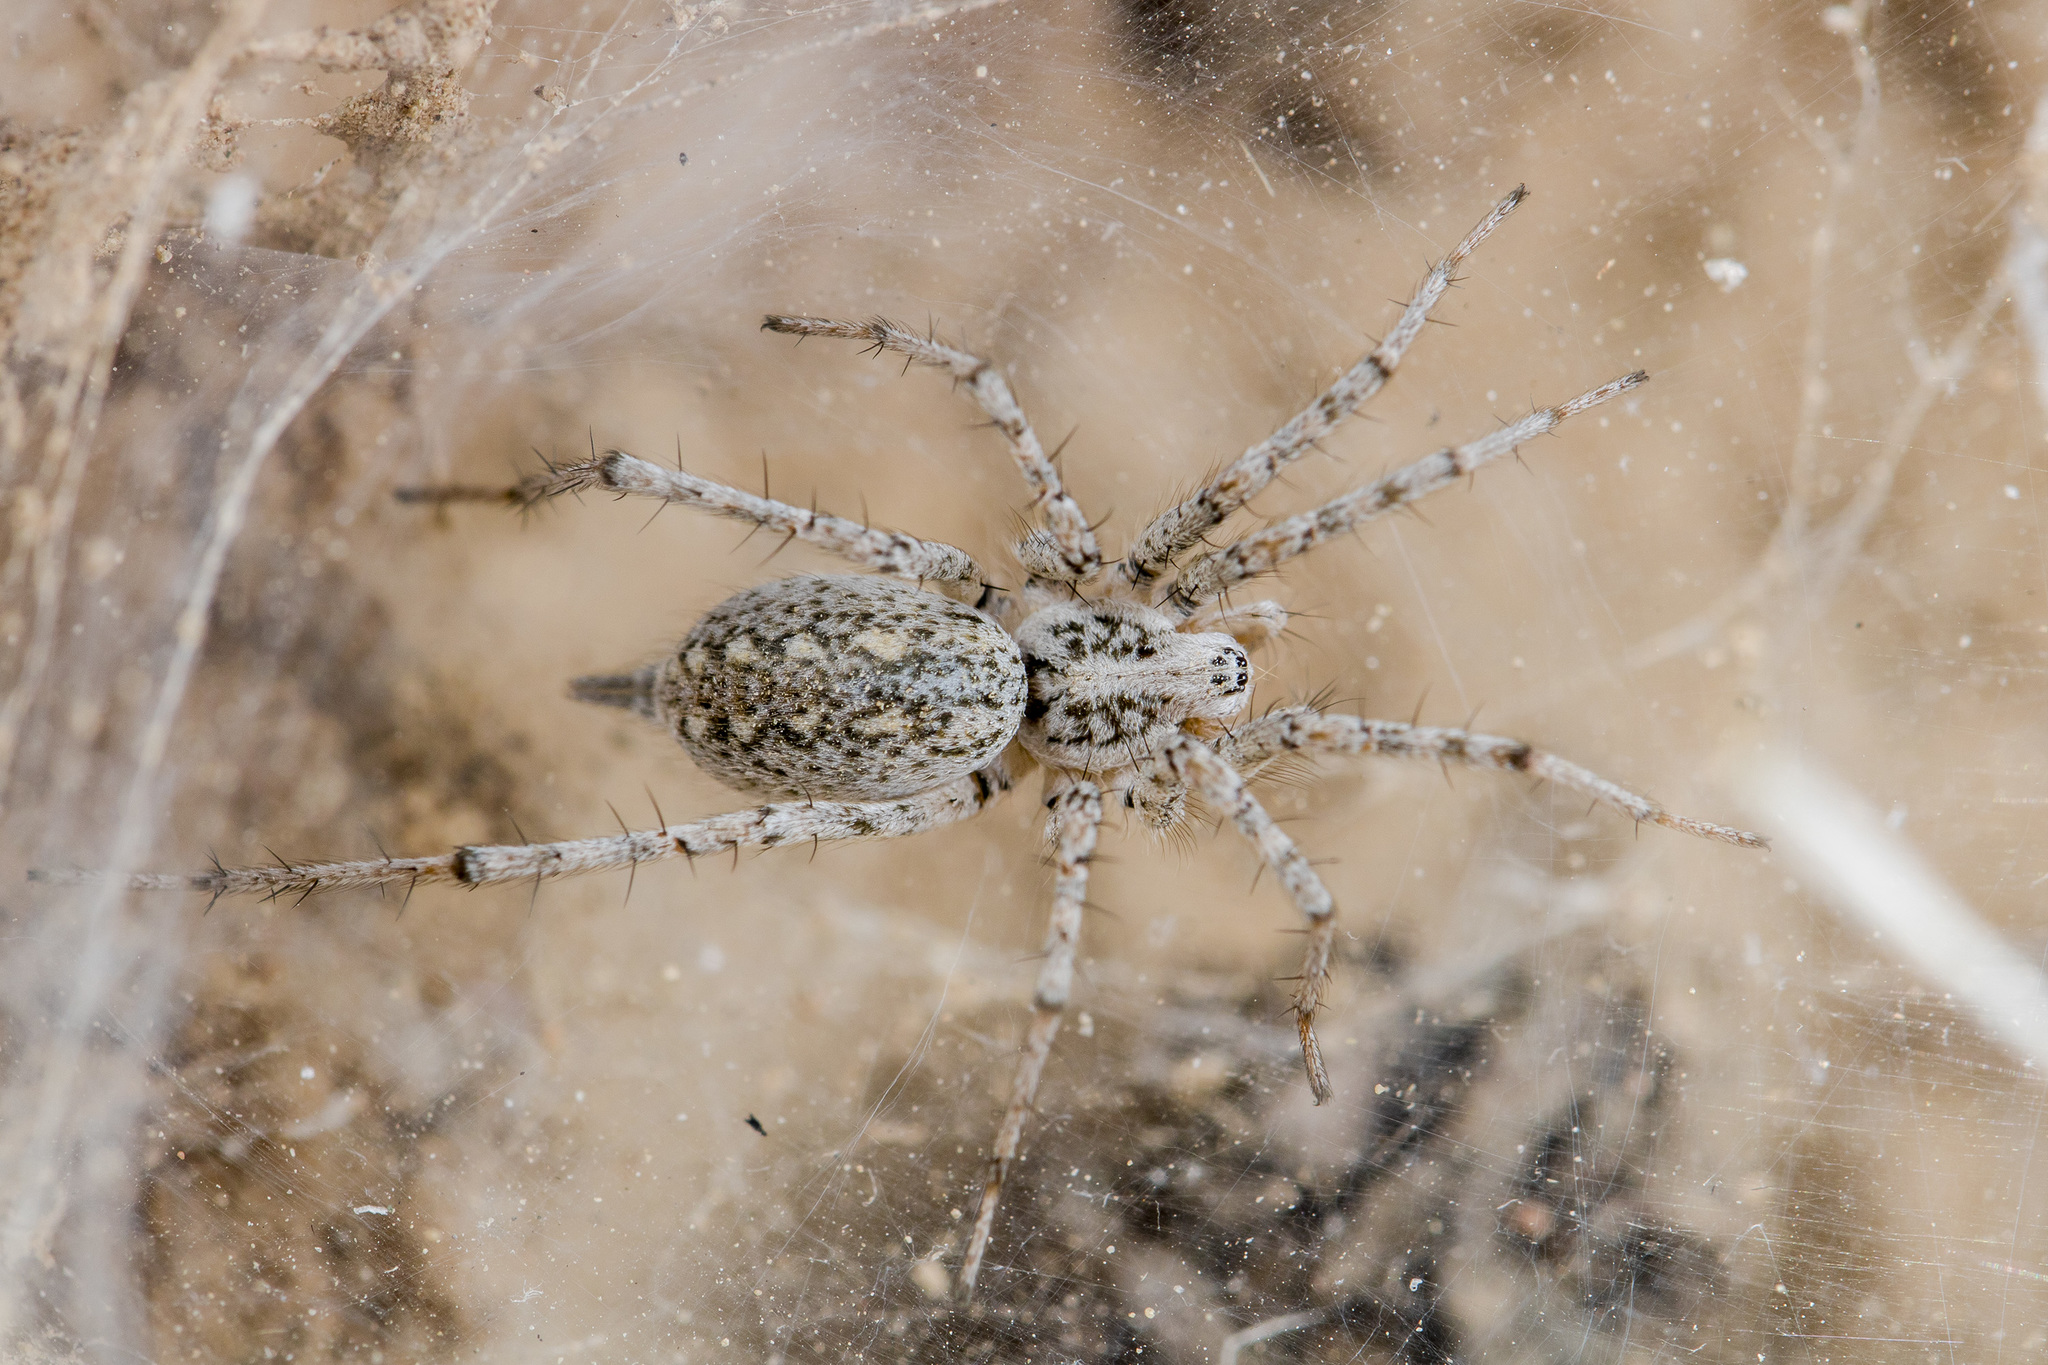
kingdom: Animalia
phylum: Arthropoda
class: Arachnida
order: Araneae
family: Agelenidae
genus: Benoitia
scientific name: Benoitia tadzhika
